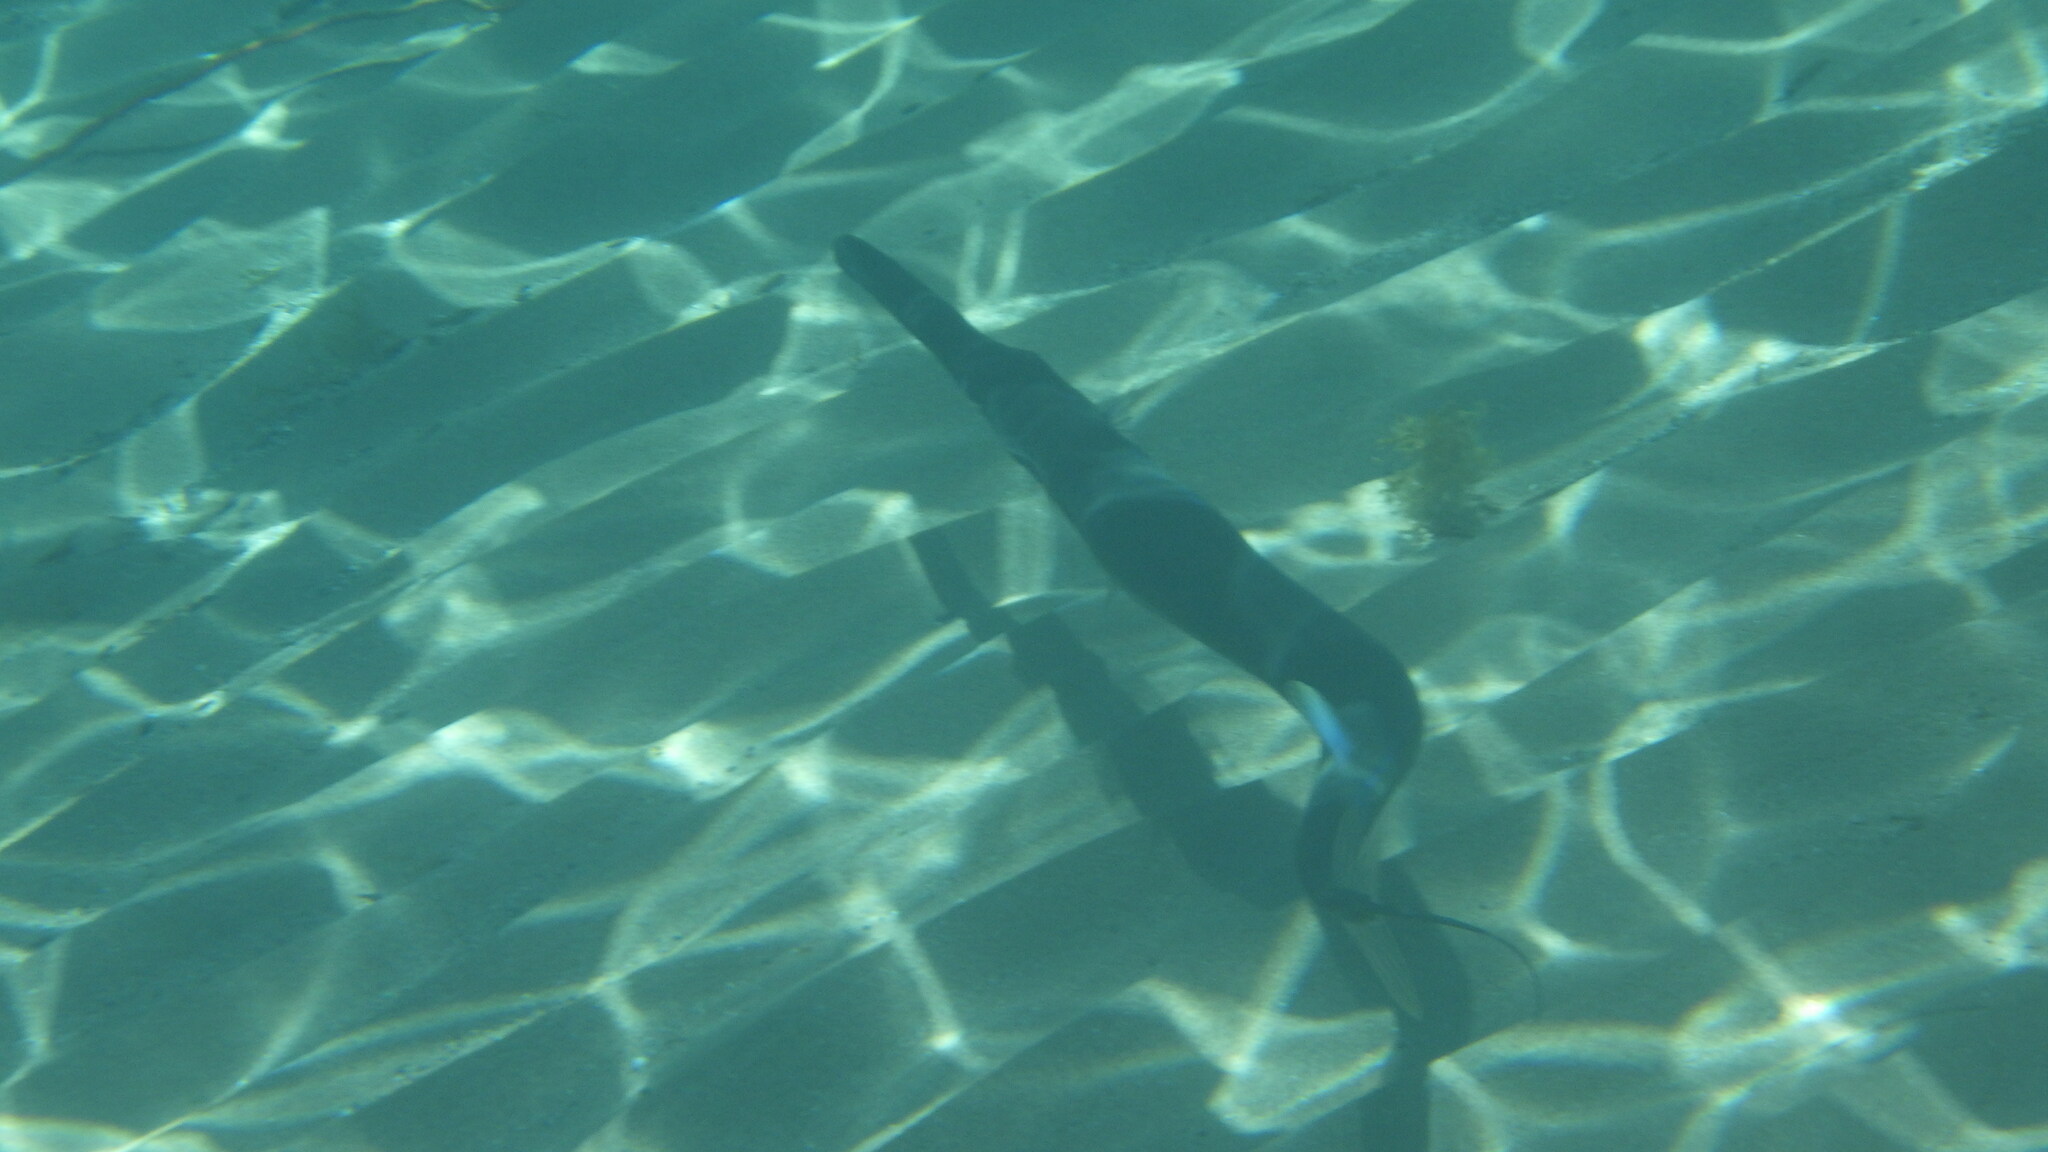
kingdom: Animalia
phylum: Chordata
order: Syngnathiformes
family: Fistulariidae
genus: Fistularia
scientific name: Fistularia commersonii
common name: Bluespotted cornetfish
